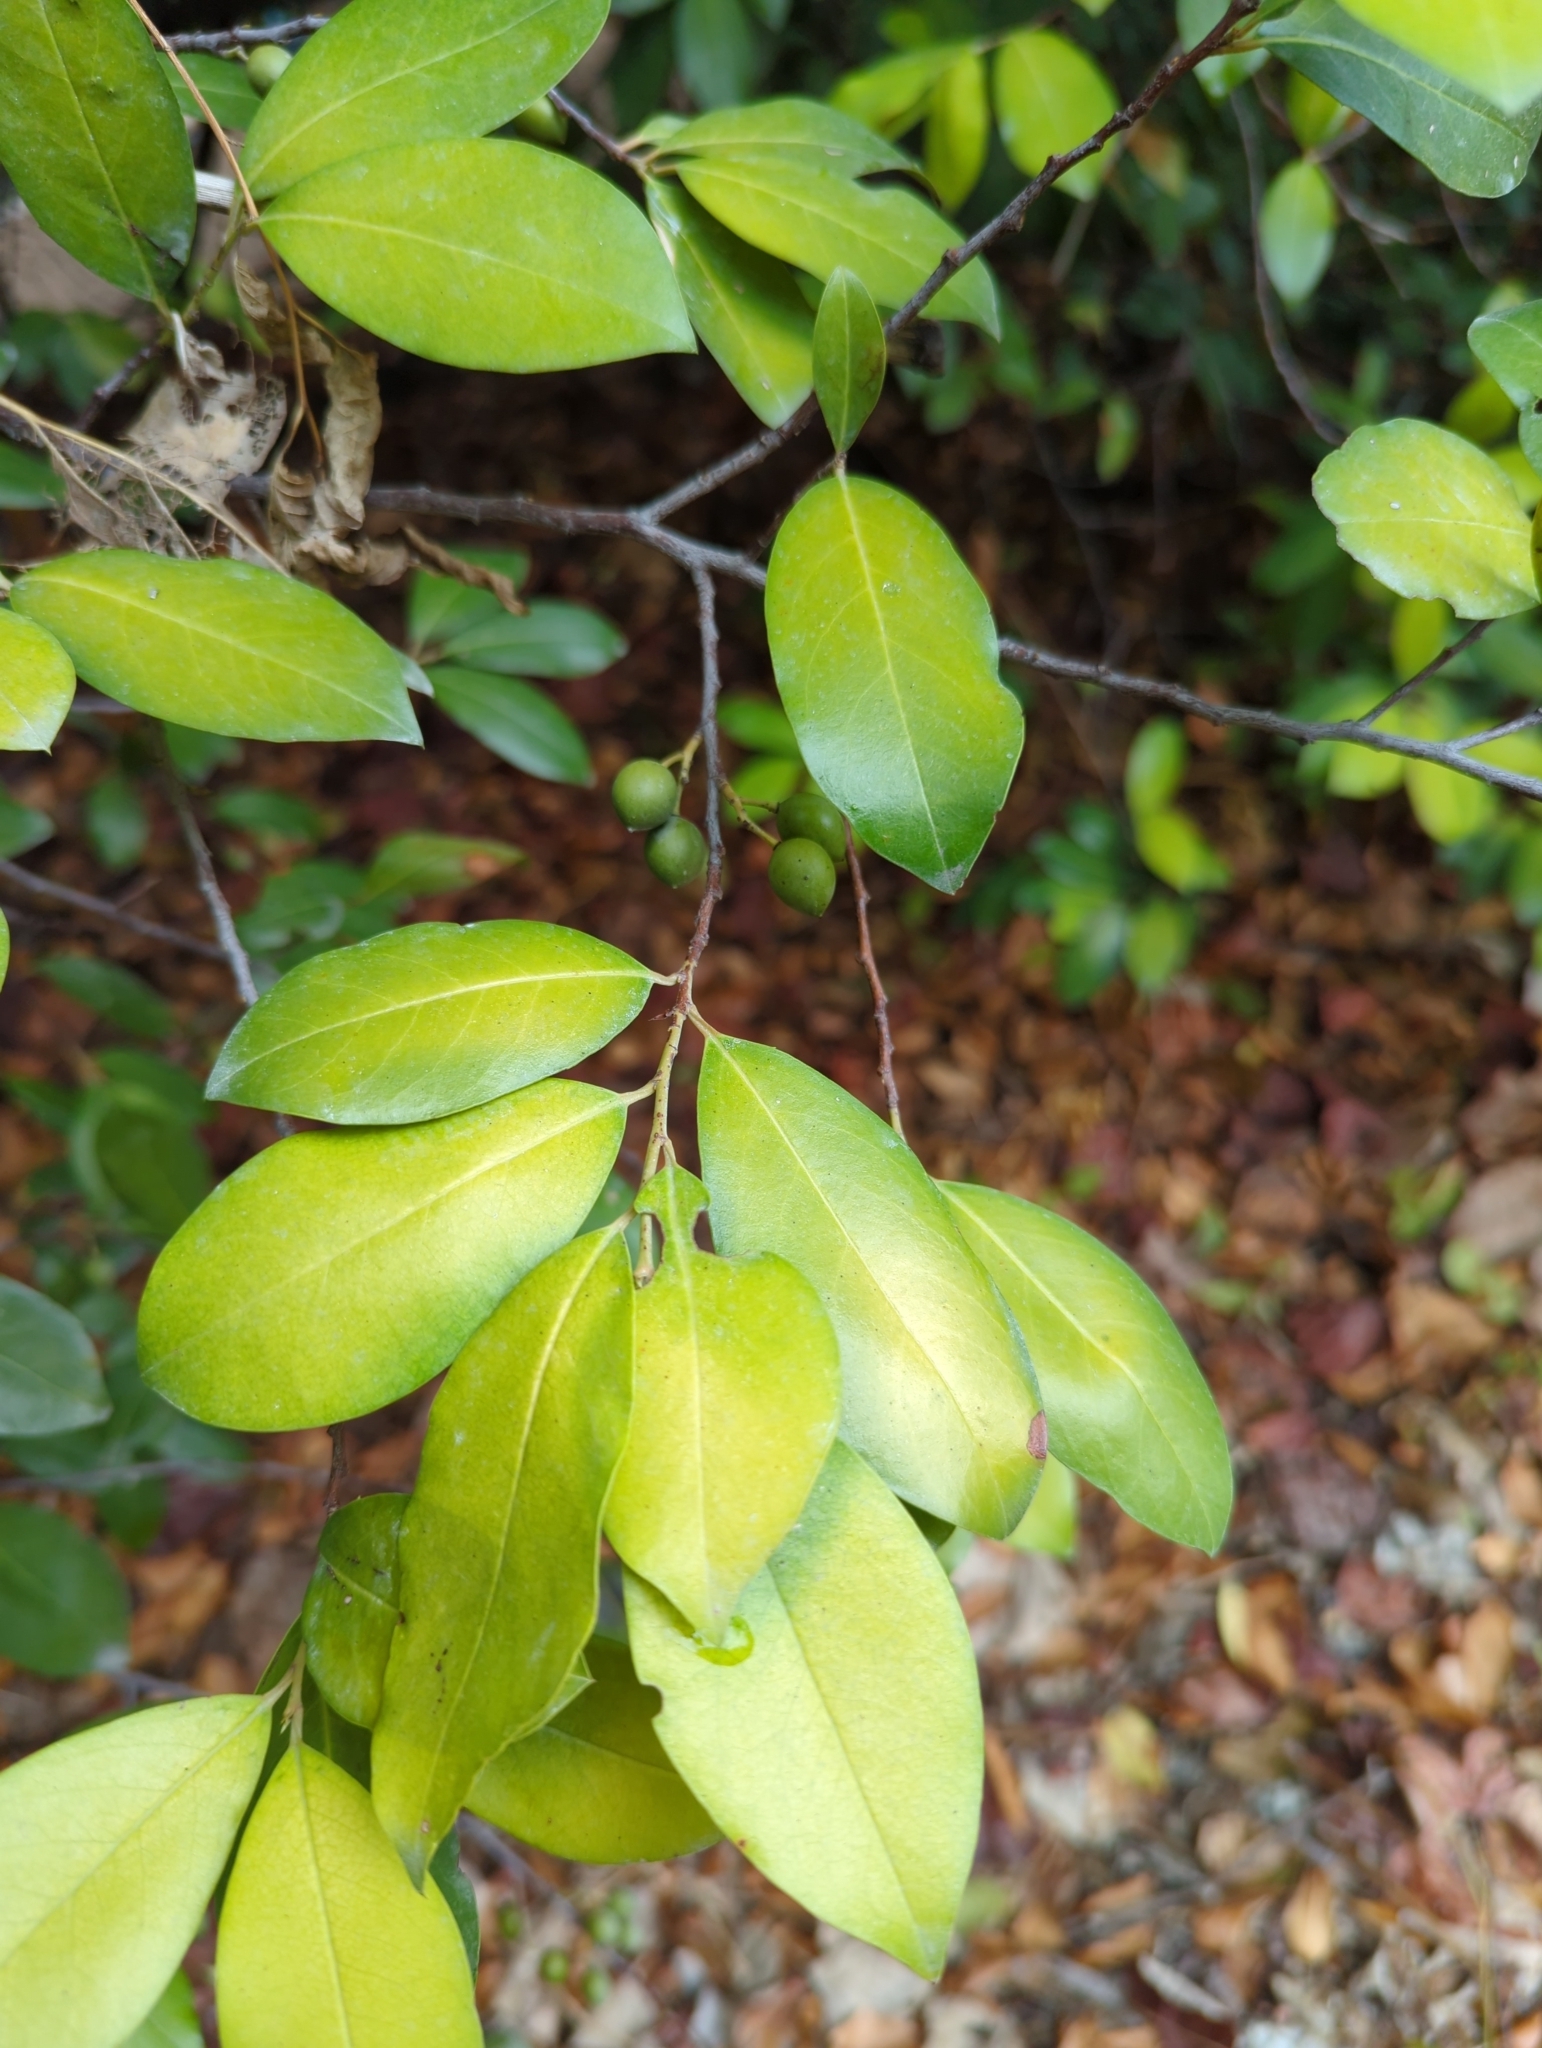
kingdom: Plantae
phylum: Tracheophyta
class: Magnoliopsida
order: Rosales
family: Rosaceae
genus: Prunus
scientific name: Prunus caroliniana
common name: Carolina laurel cherry
